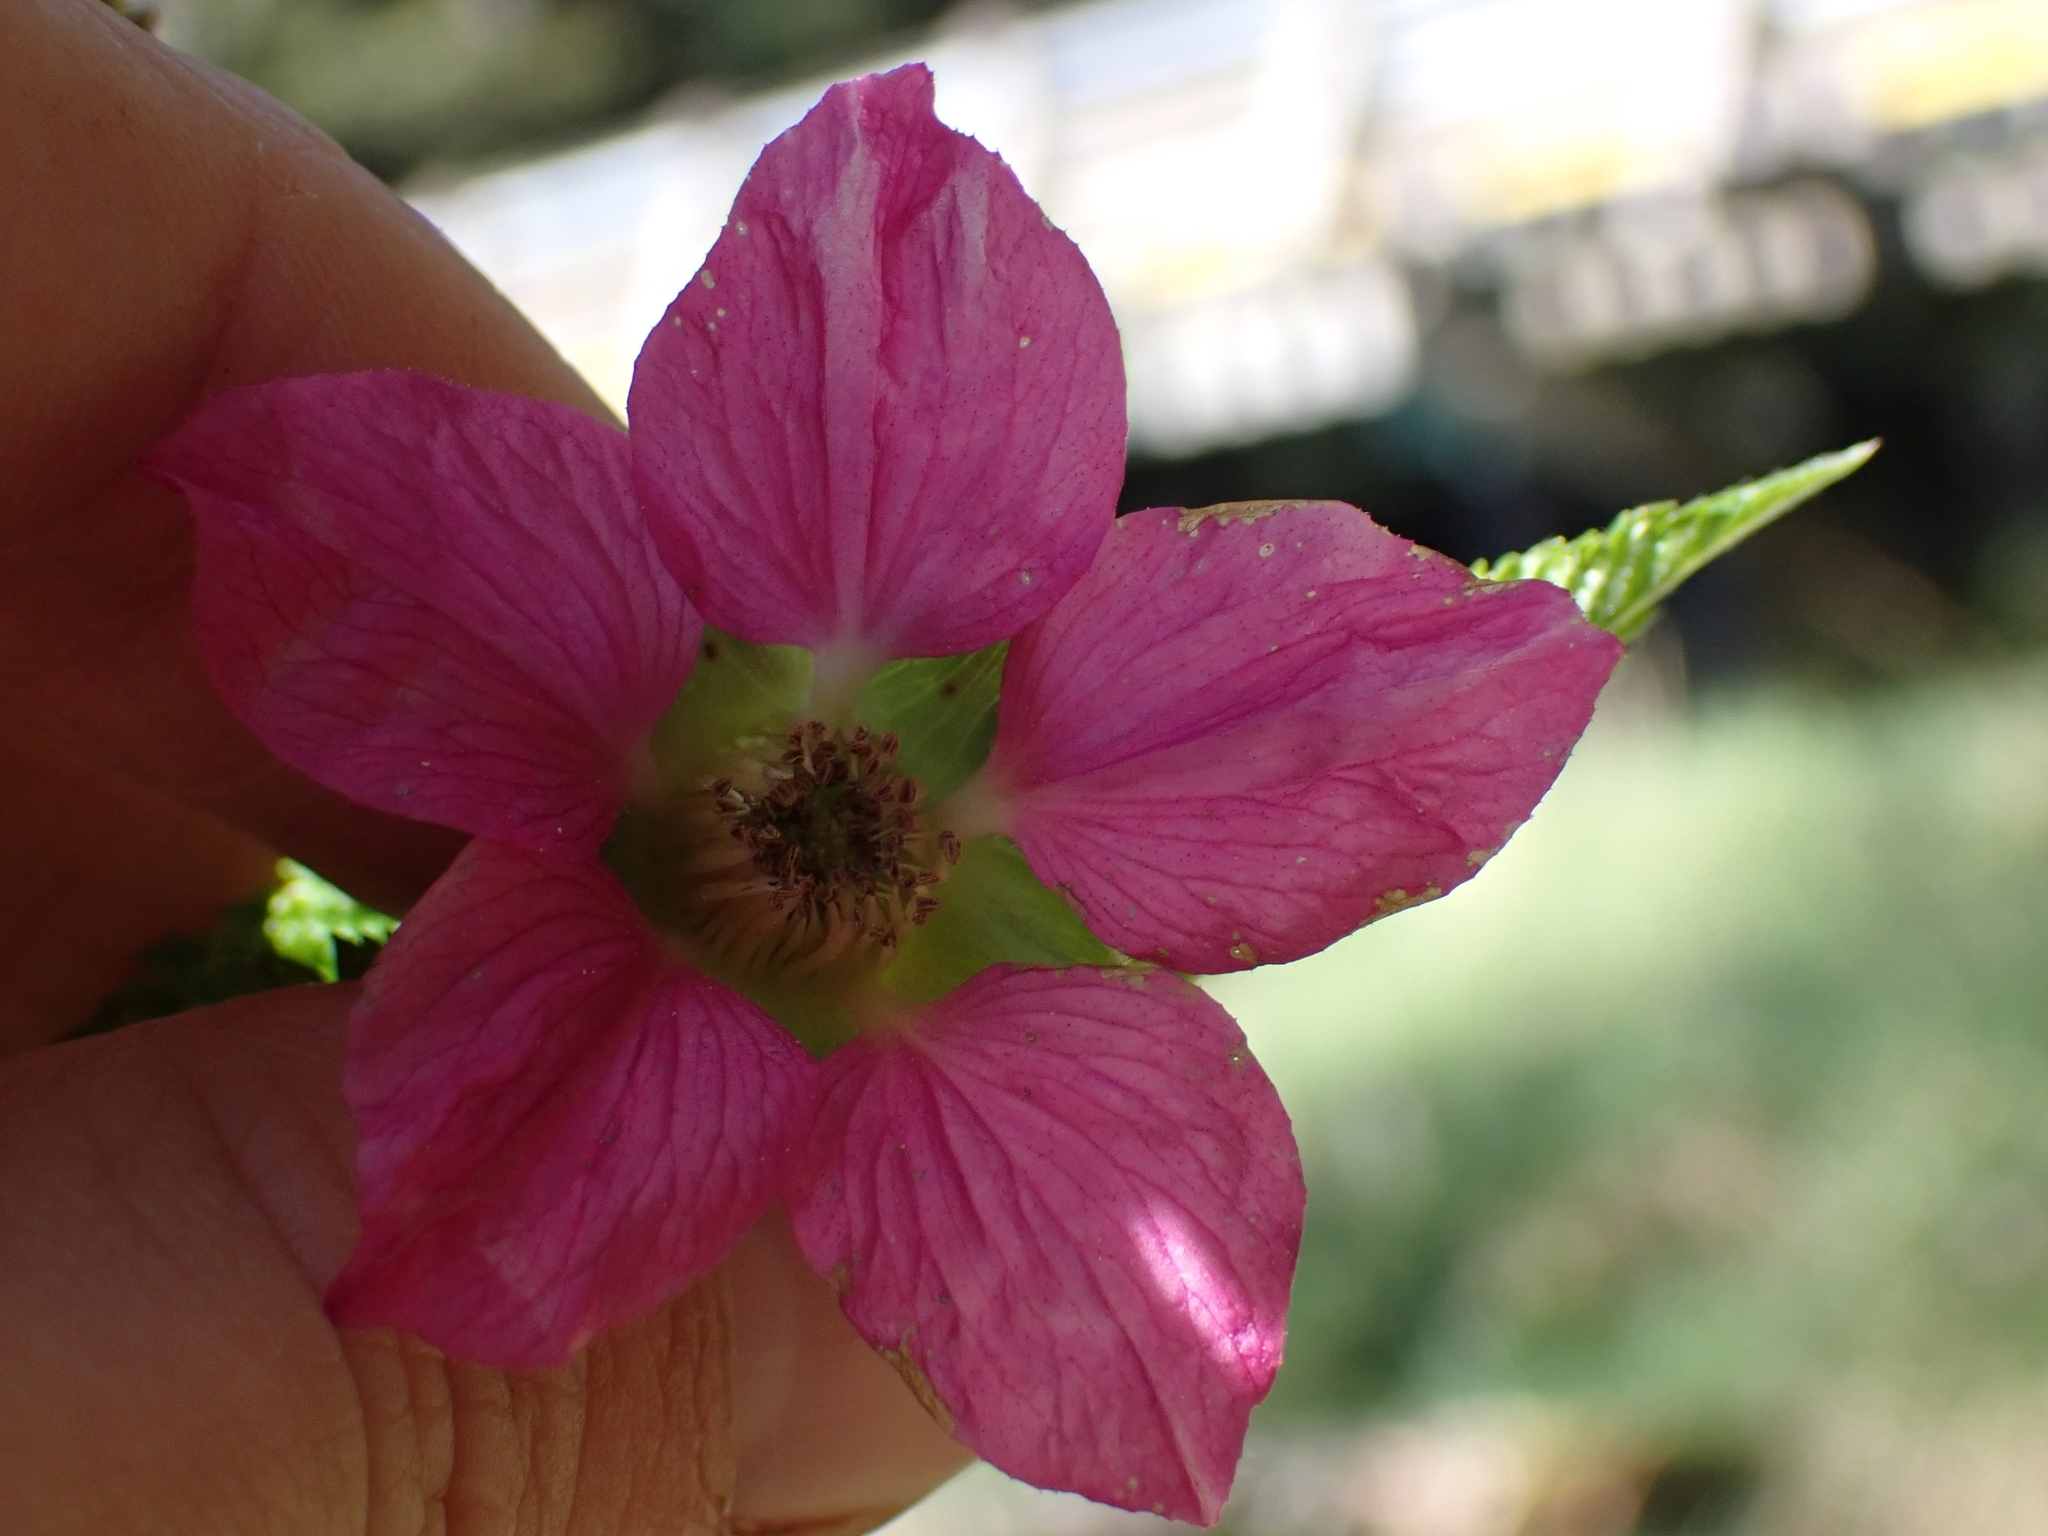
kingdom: Plantae
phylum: Tracheophyta
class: Magnoliopsida
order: Rosales
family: Rosaceae
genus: Rubus
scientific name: Rubus spectabilis
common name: Salmonberry
